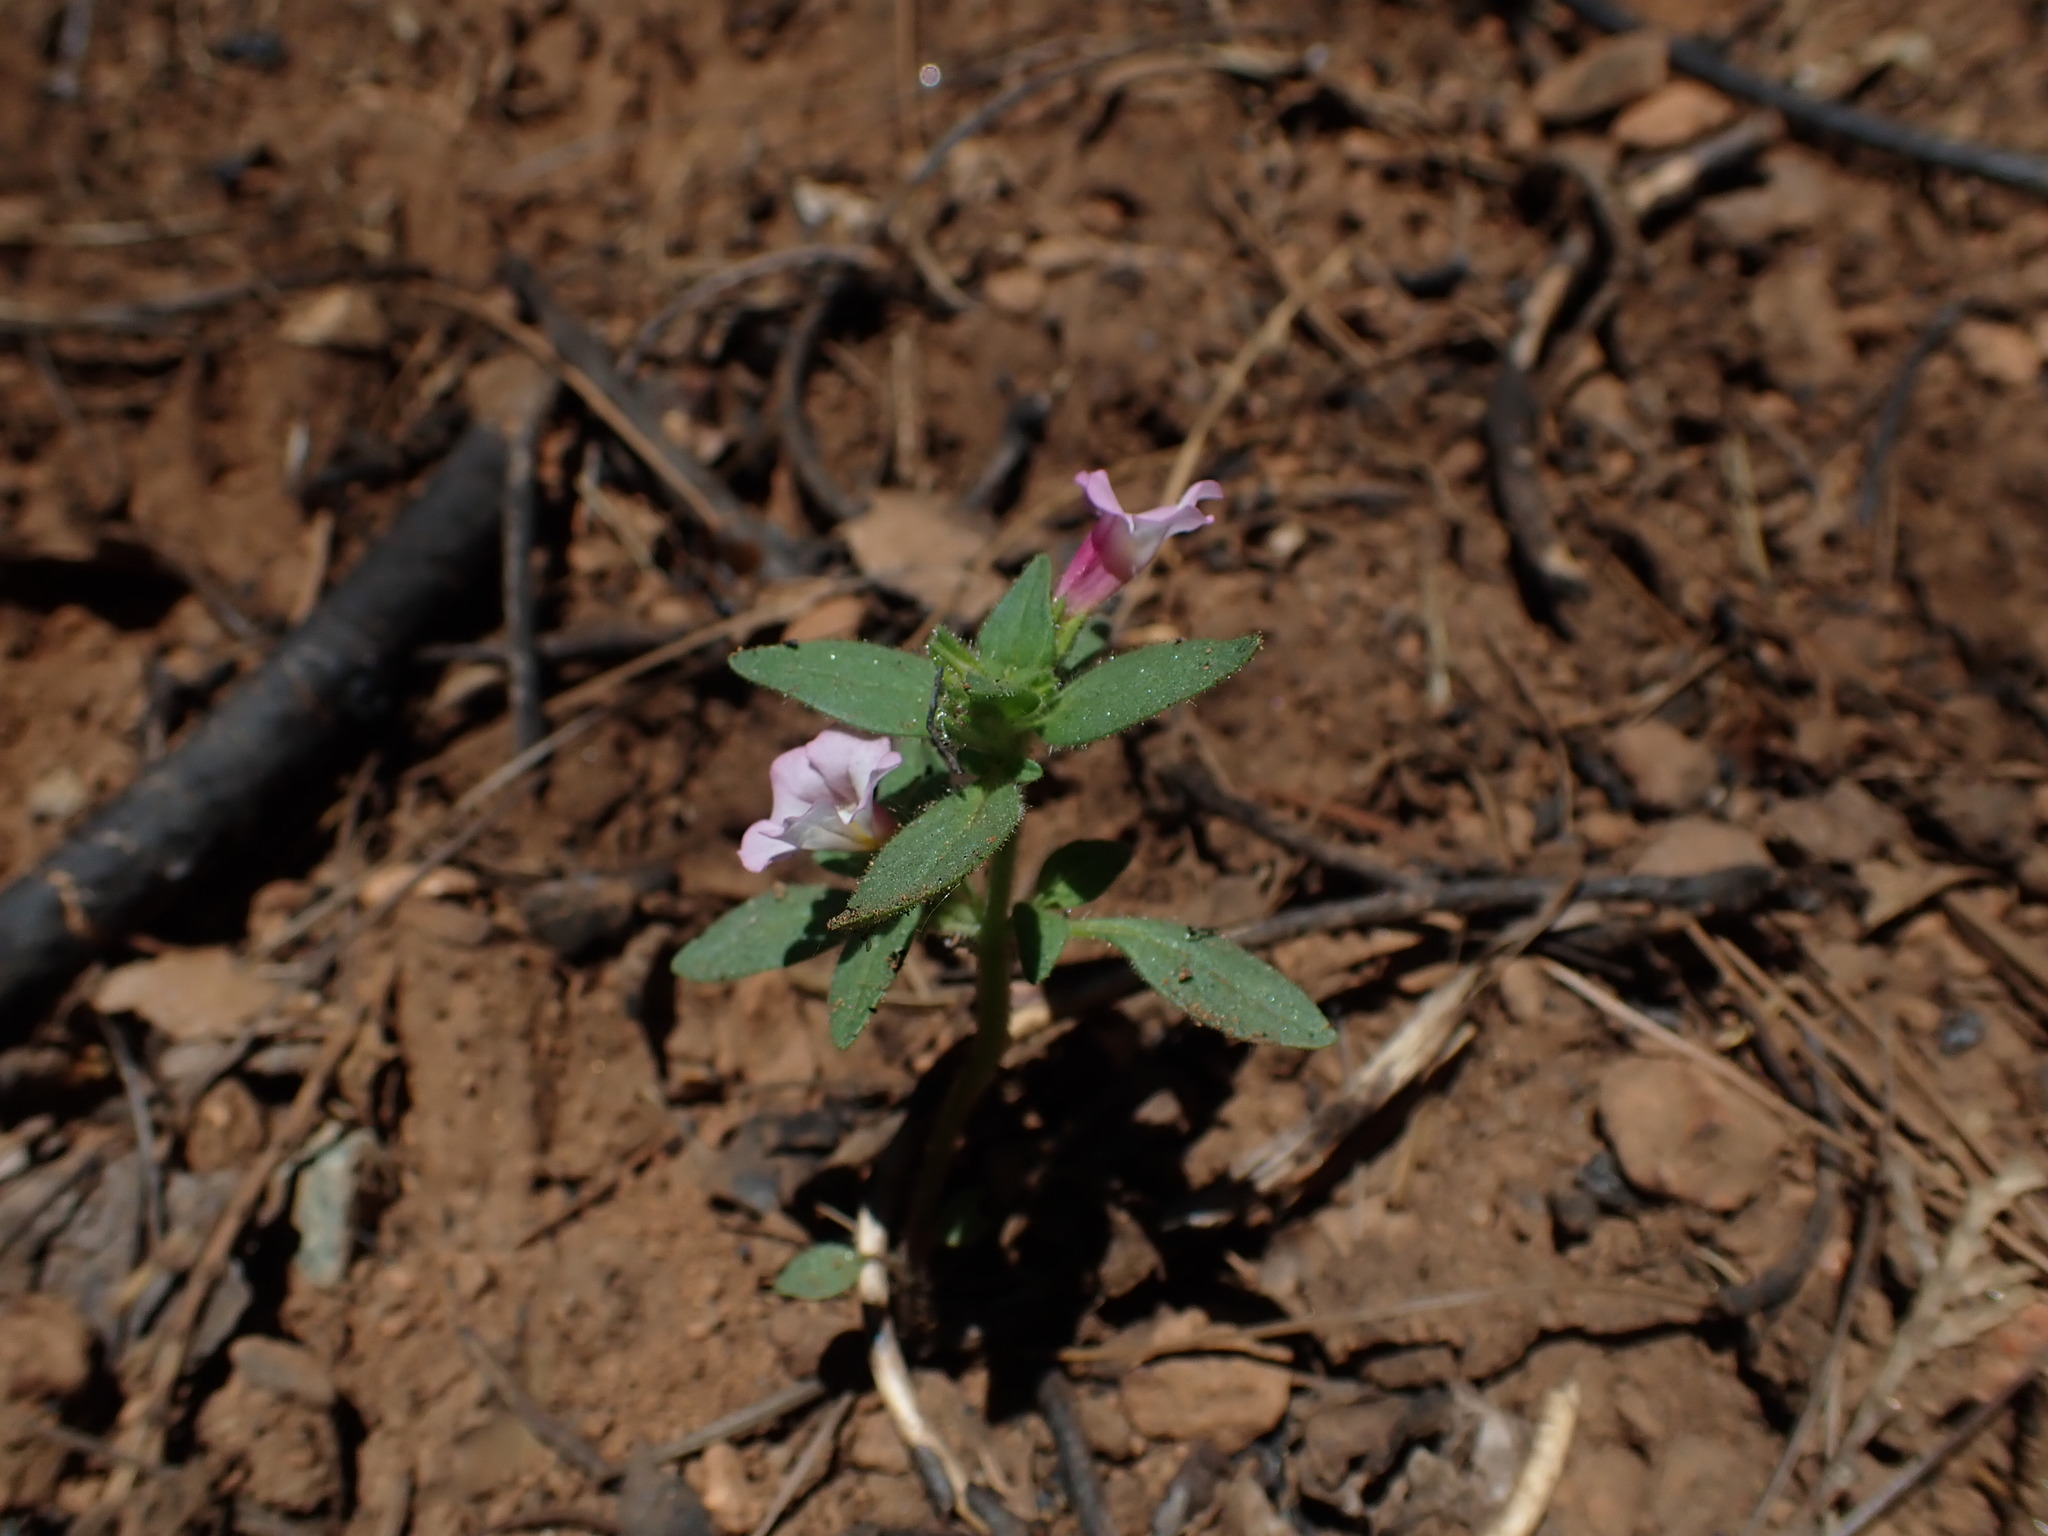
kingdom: Plantae
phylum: Tracheophyta
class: Magnoliopsida
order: Lamiales
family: Phrymaceae
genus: Diplacus
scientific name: Diplacus torreyi
